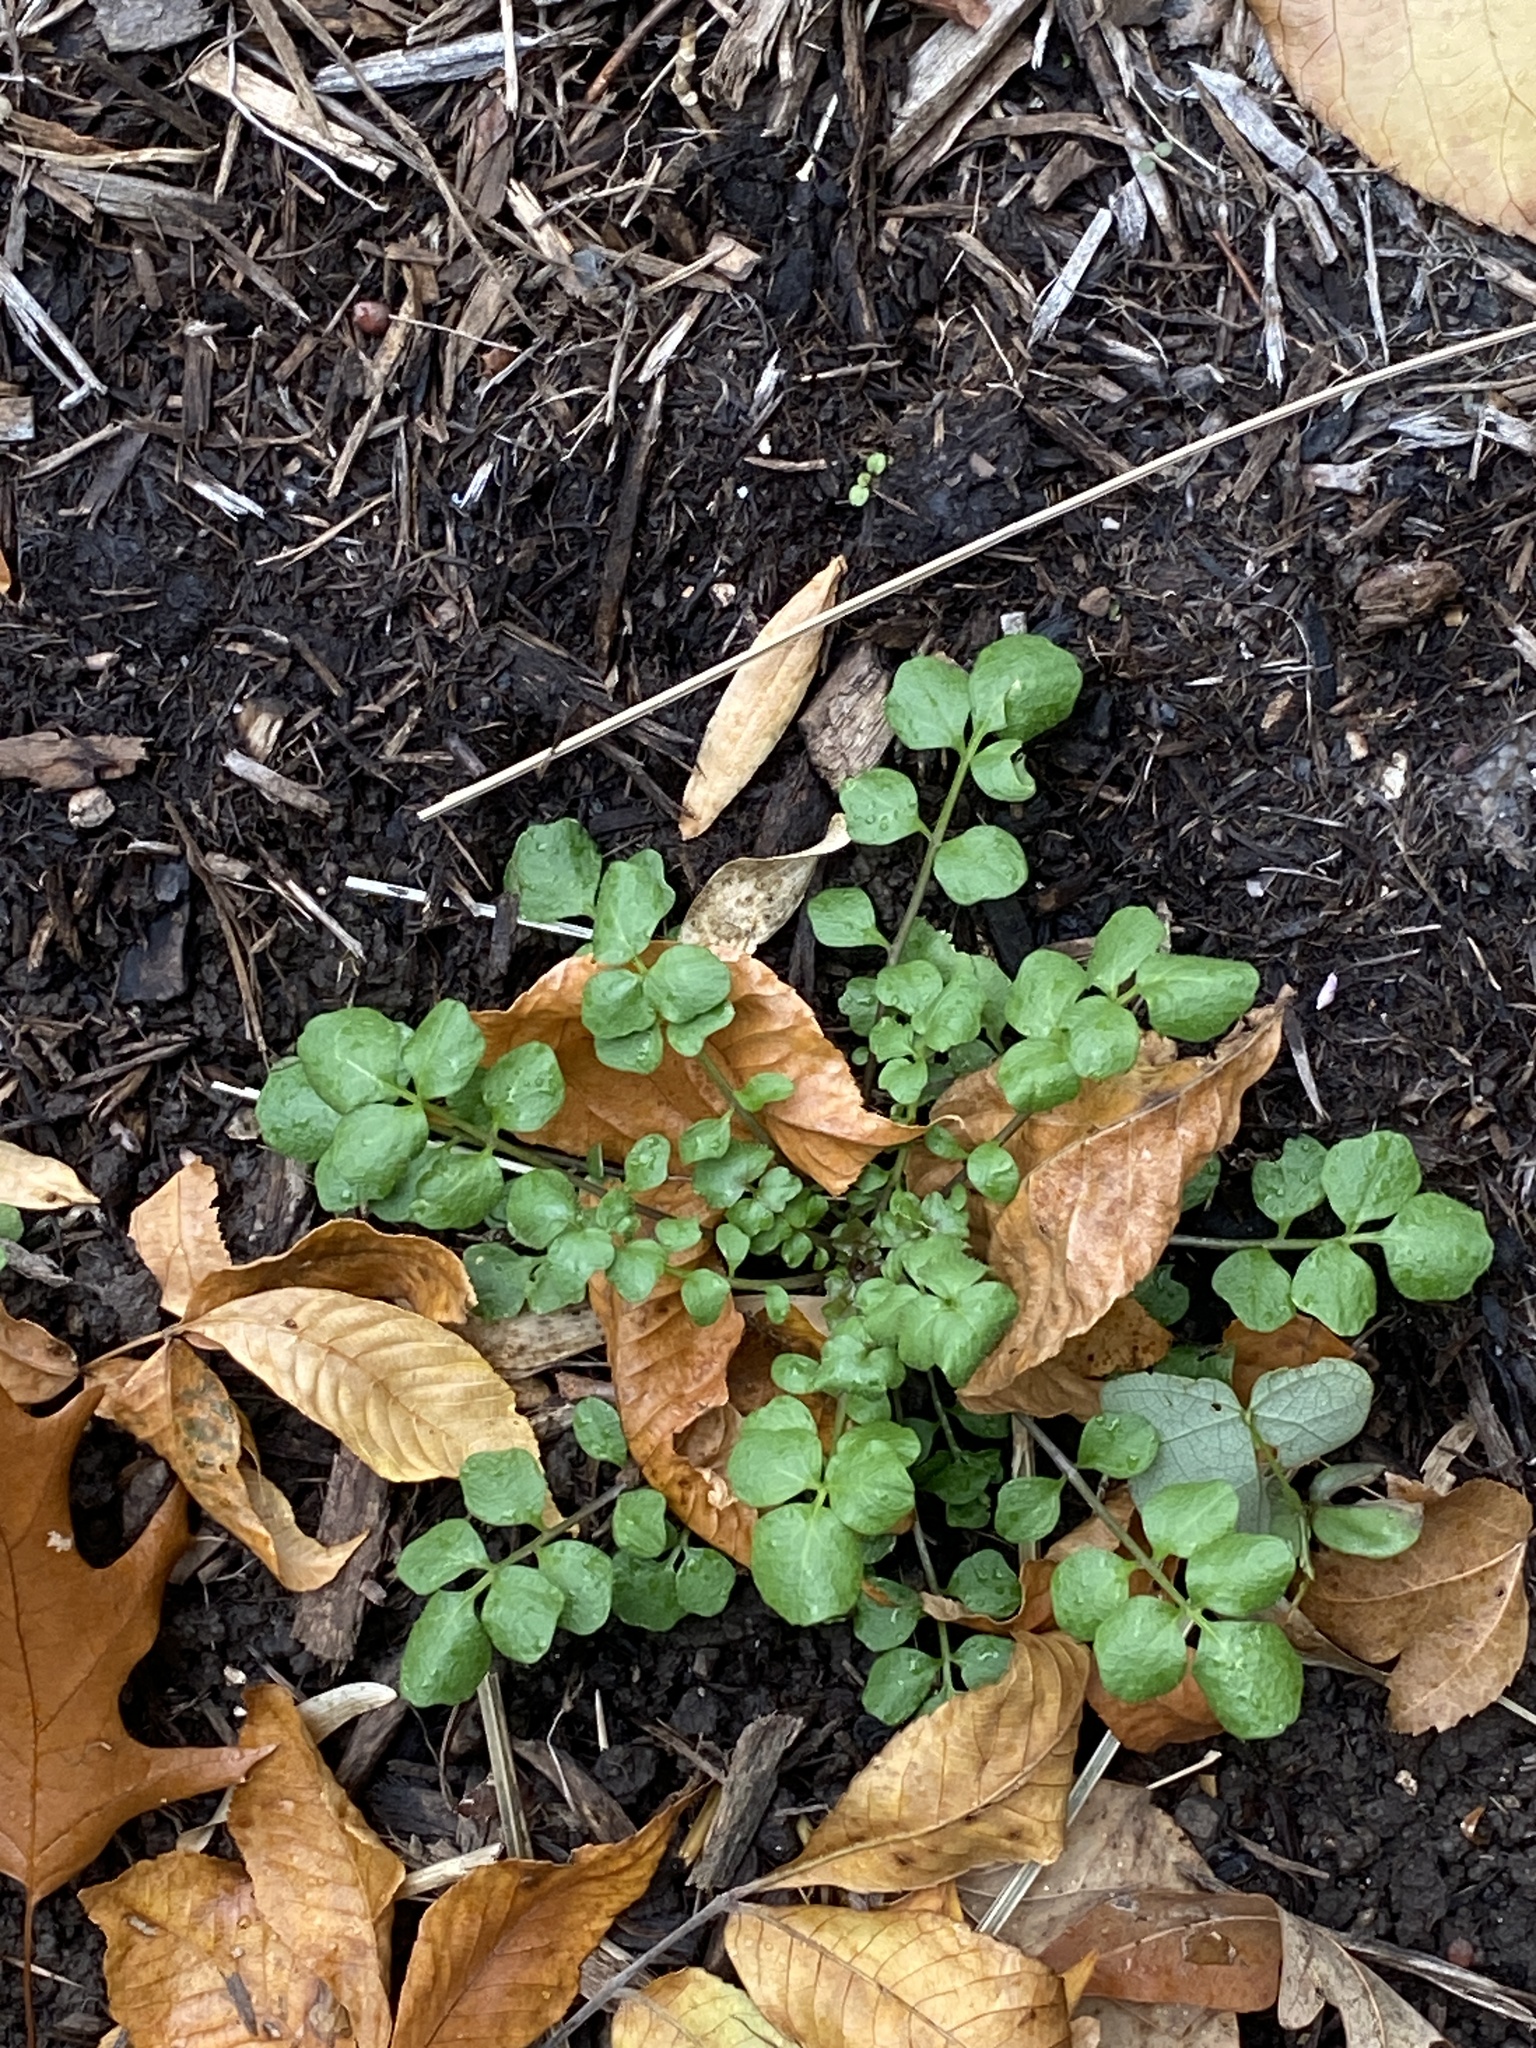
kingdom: Plantae
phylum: Tracheophyta
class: Magnoliopsida
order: Brassicales
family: Brassicaceae
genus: Cardamine
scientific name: Cardamine hirsuta
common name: Hairy bittercress
